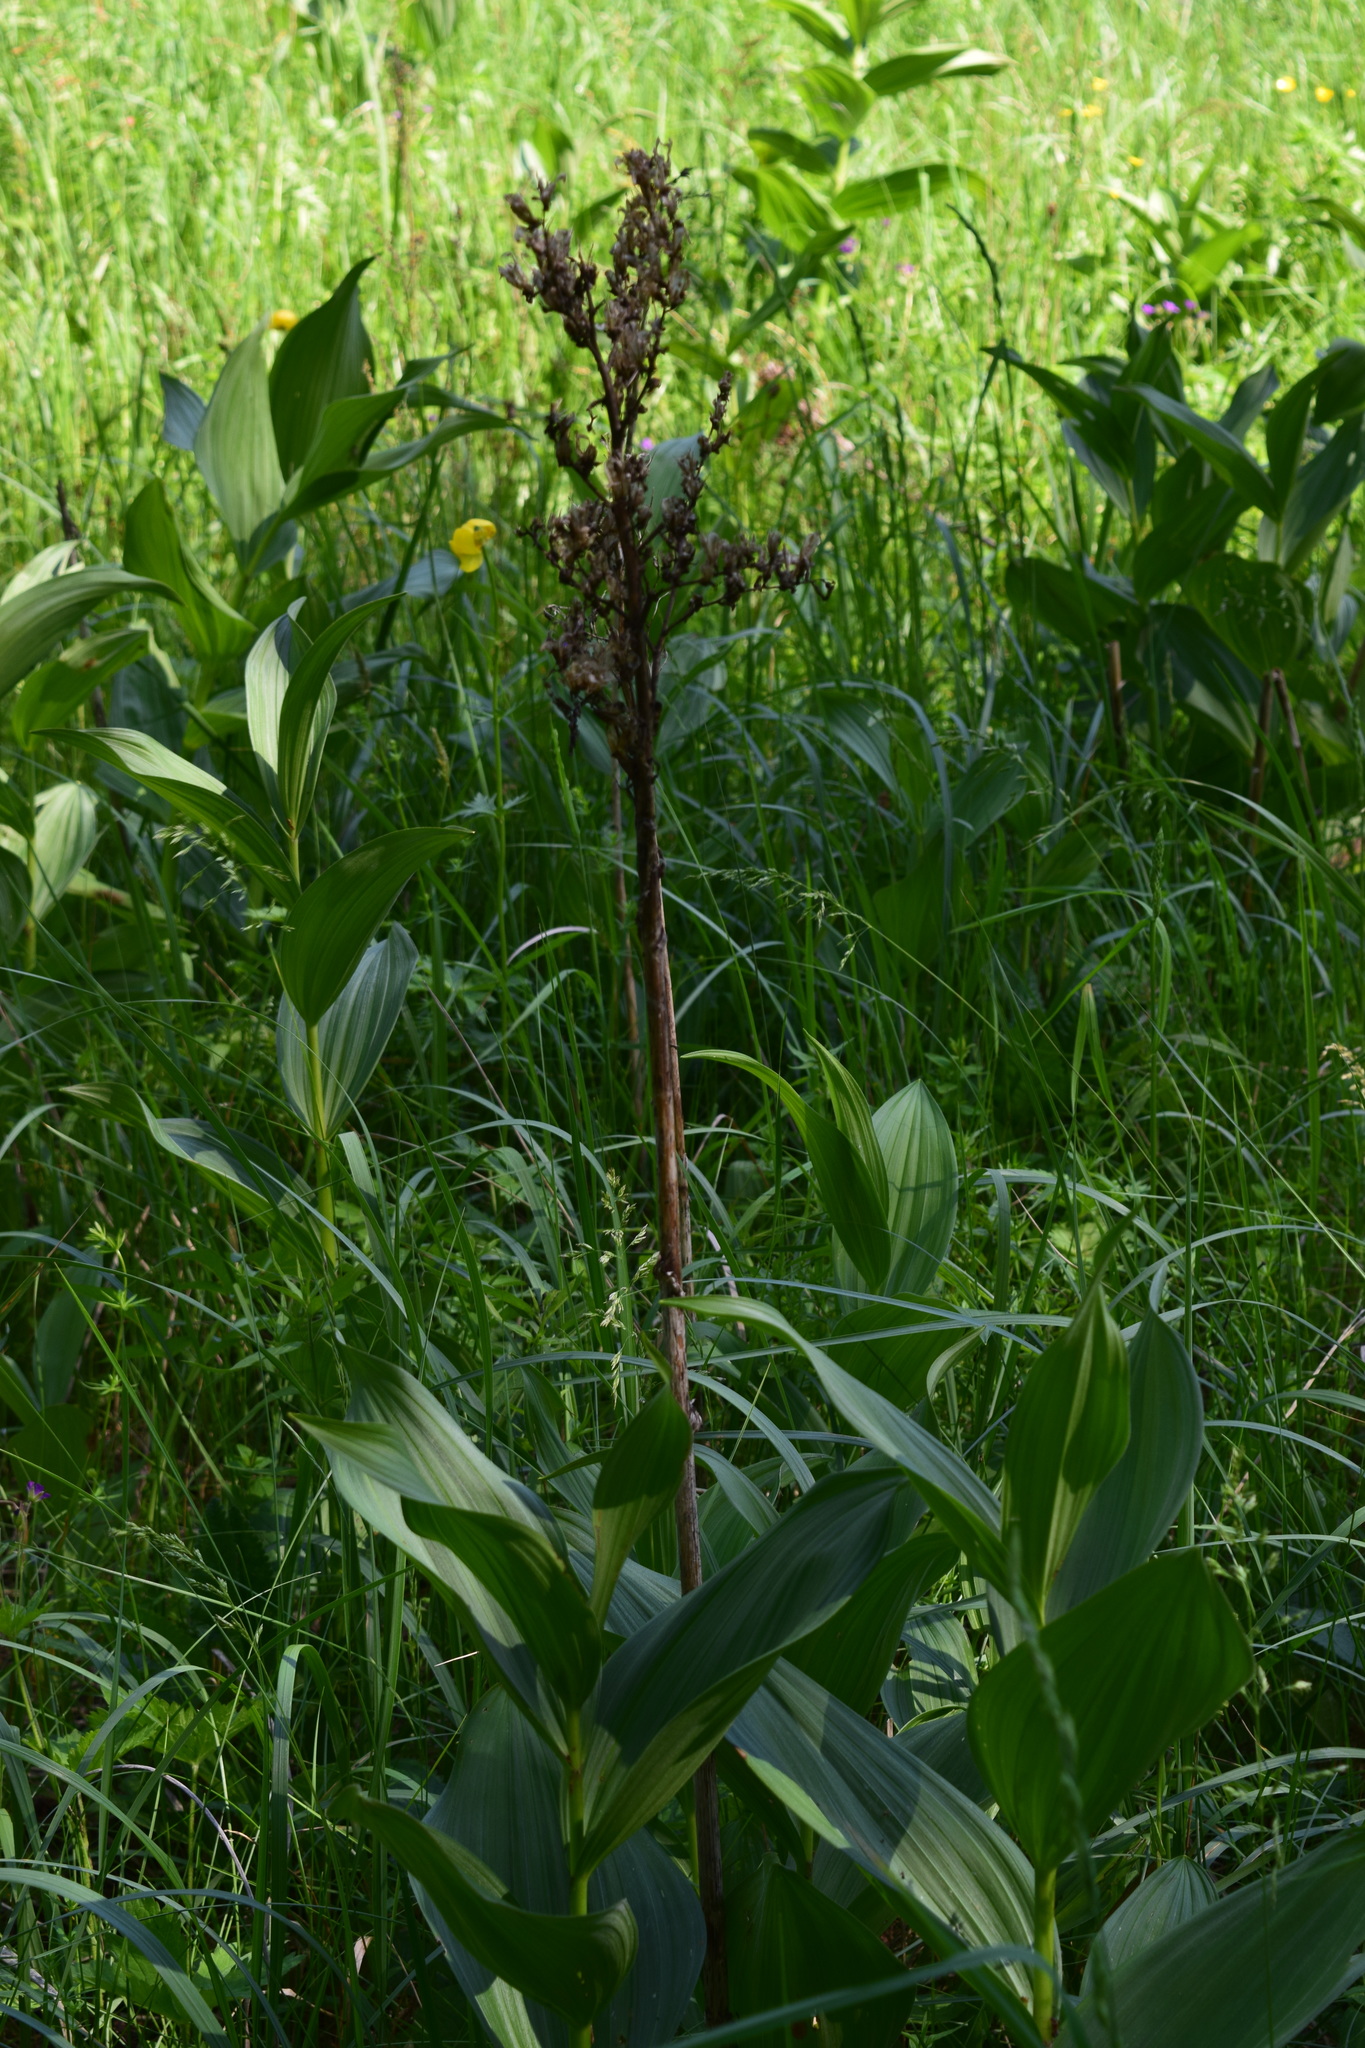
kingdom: Plantae
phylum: Tracheophyta
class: Liliopsida
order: Liliales
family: Melanthiaceae
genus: Veratrum
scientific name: Veratrum lobelianum
